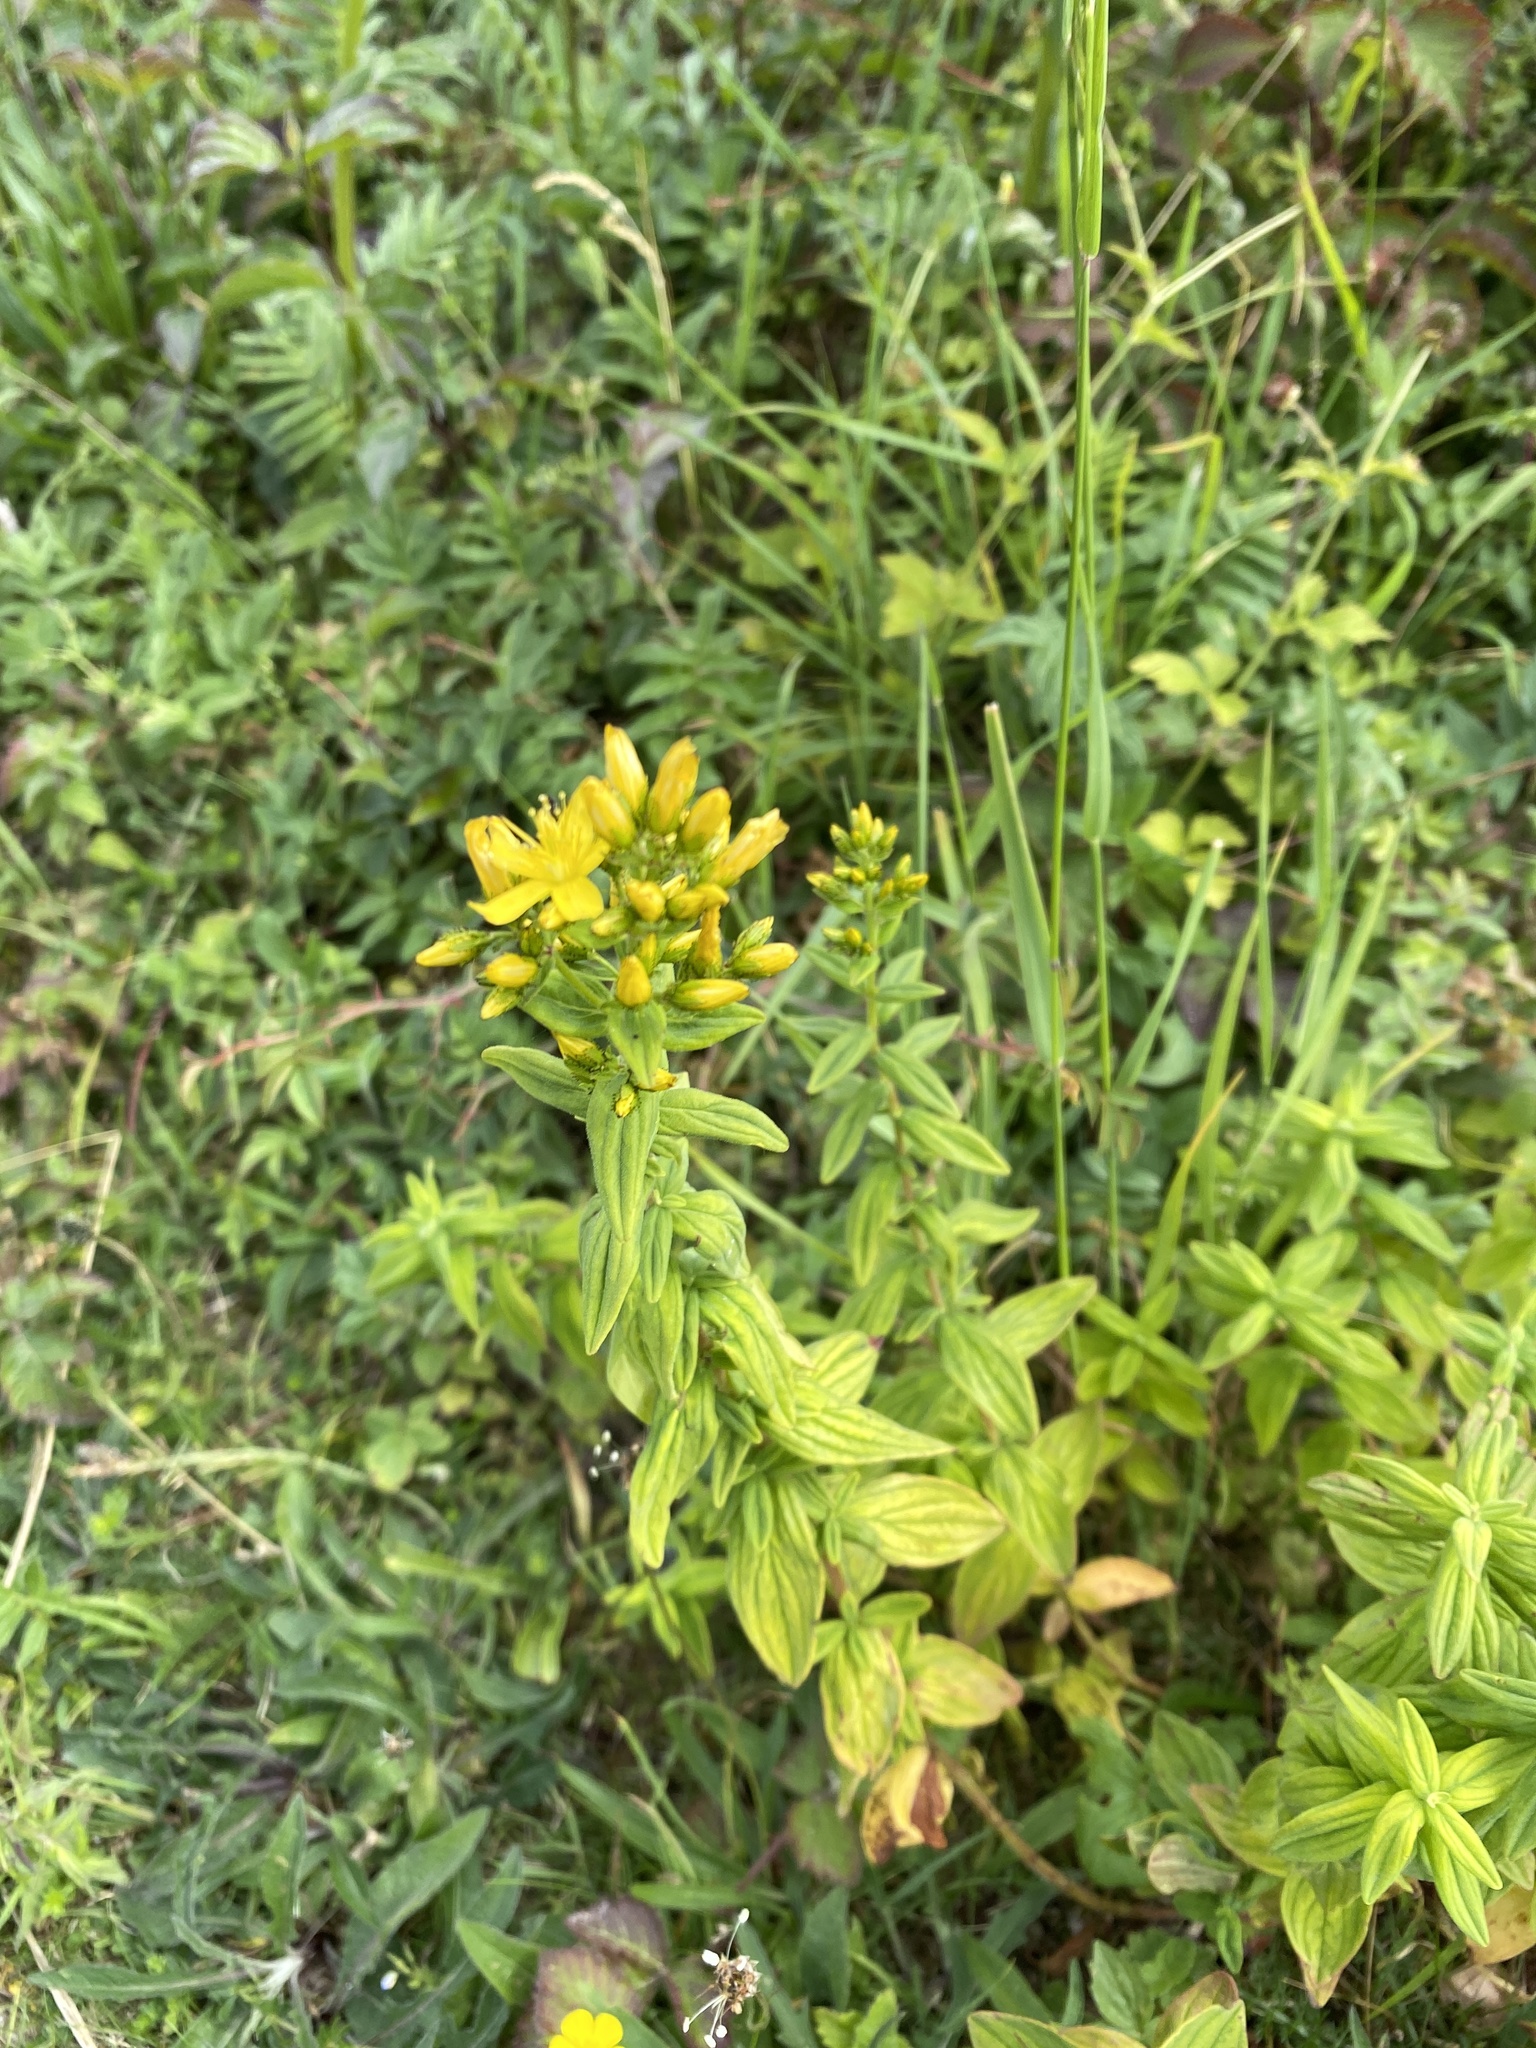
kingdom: Plantae
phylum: Tracheophyta
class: Magnoliopsida
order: Malpighiales
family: Hypericaceae
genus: Hypericum
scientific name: Hypericum hirsutum
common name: Hairy st. john's-wort
